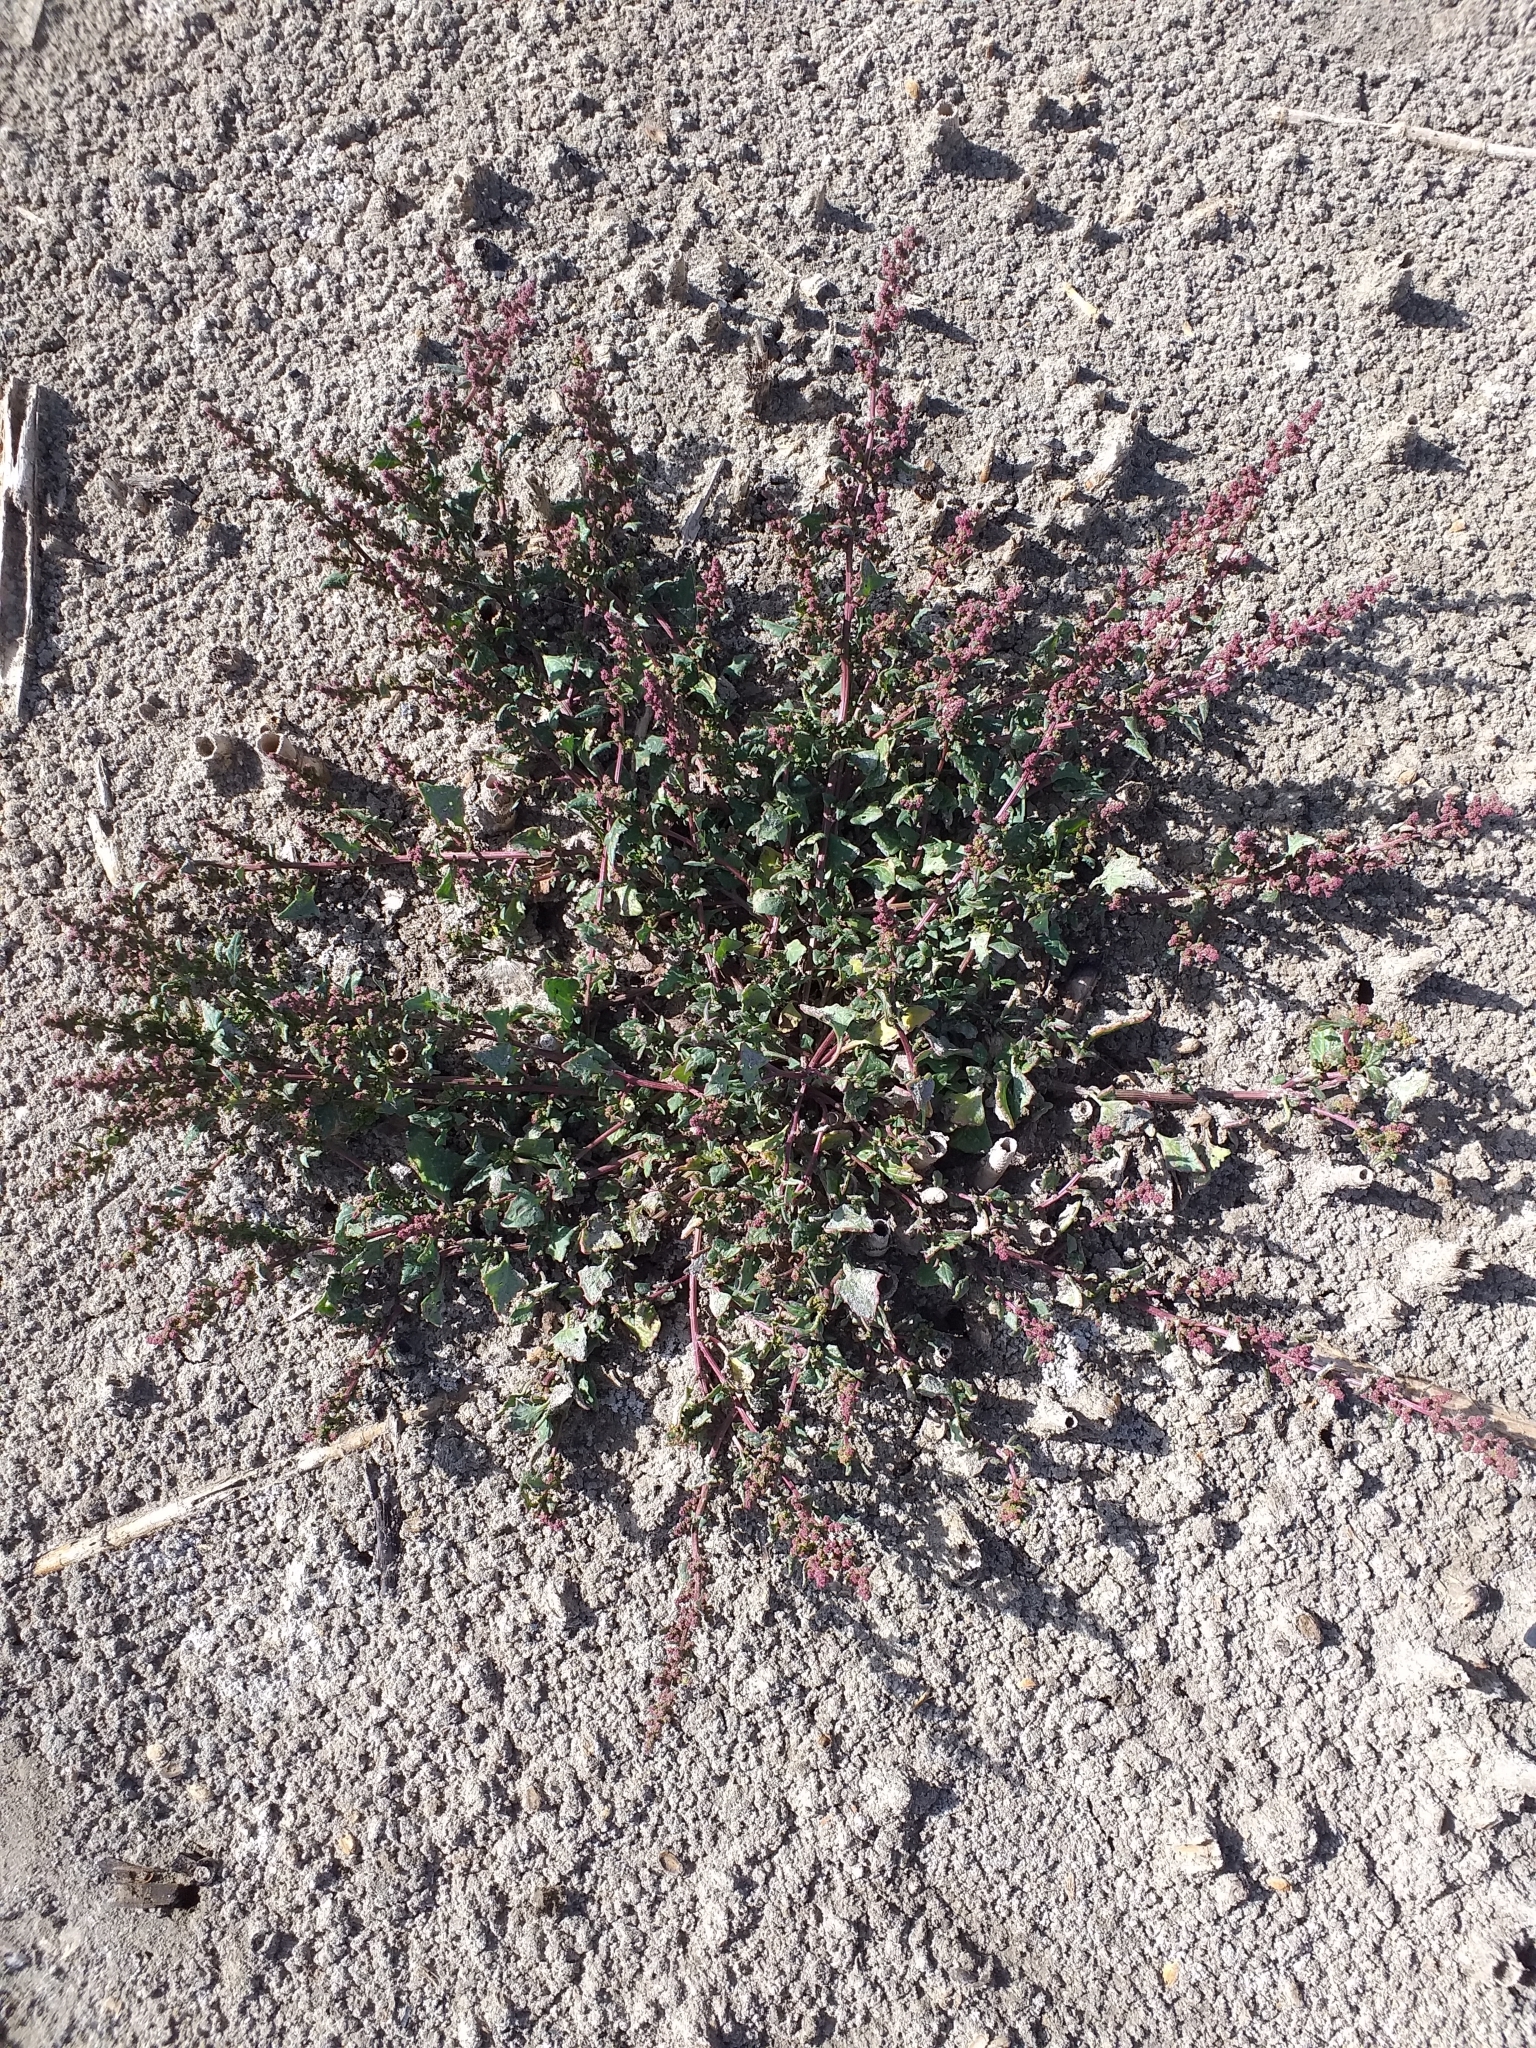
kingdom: Plantae
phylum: Tracheophyta
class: Magnoliopsida
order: Caryophyllales
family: Amaranthaceae
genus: Oxybasis
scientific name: Oxybasis chenopodioides
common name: Saltmarsh goosefoot
